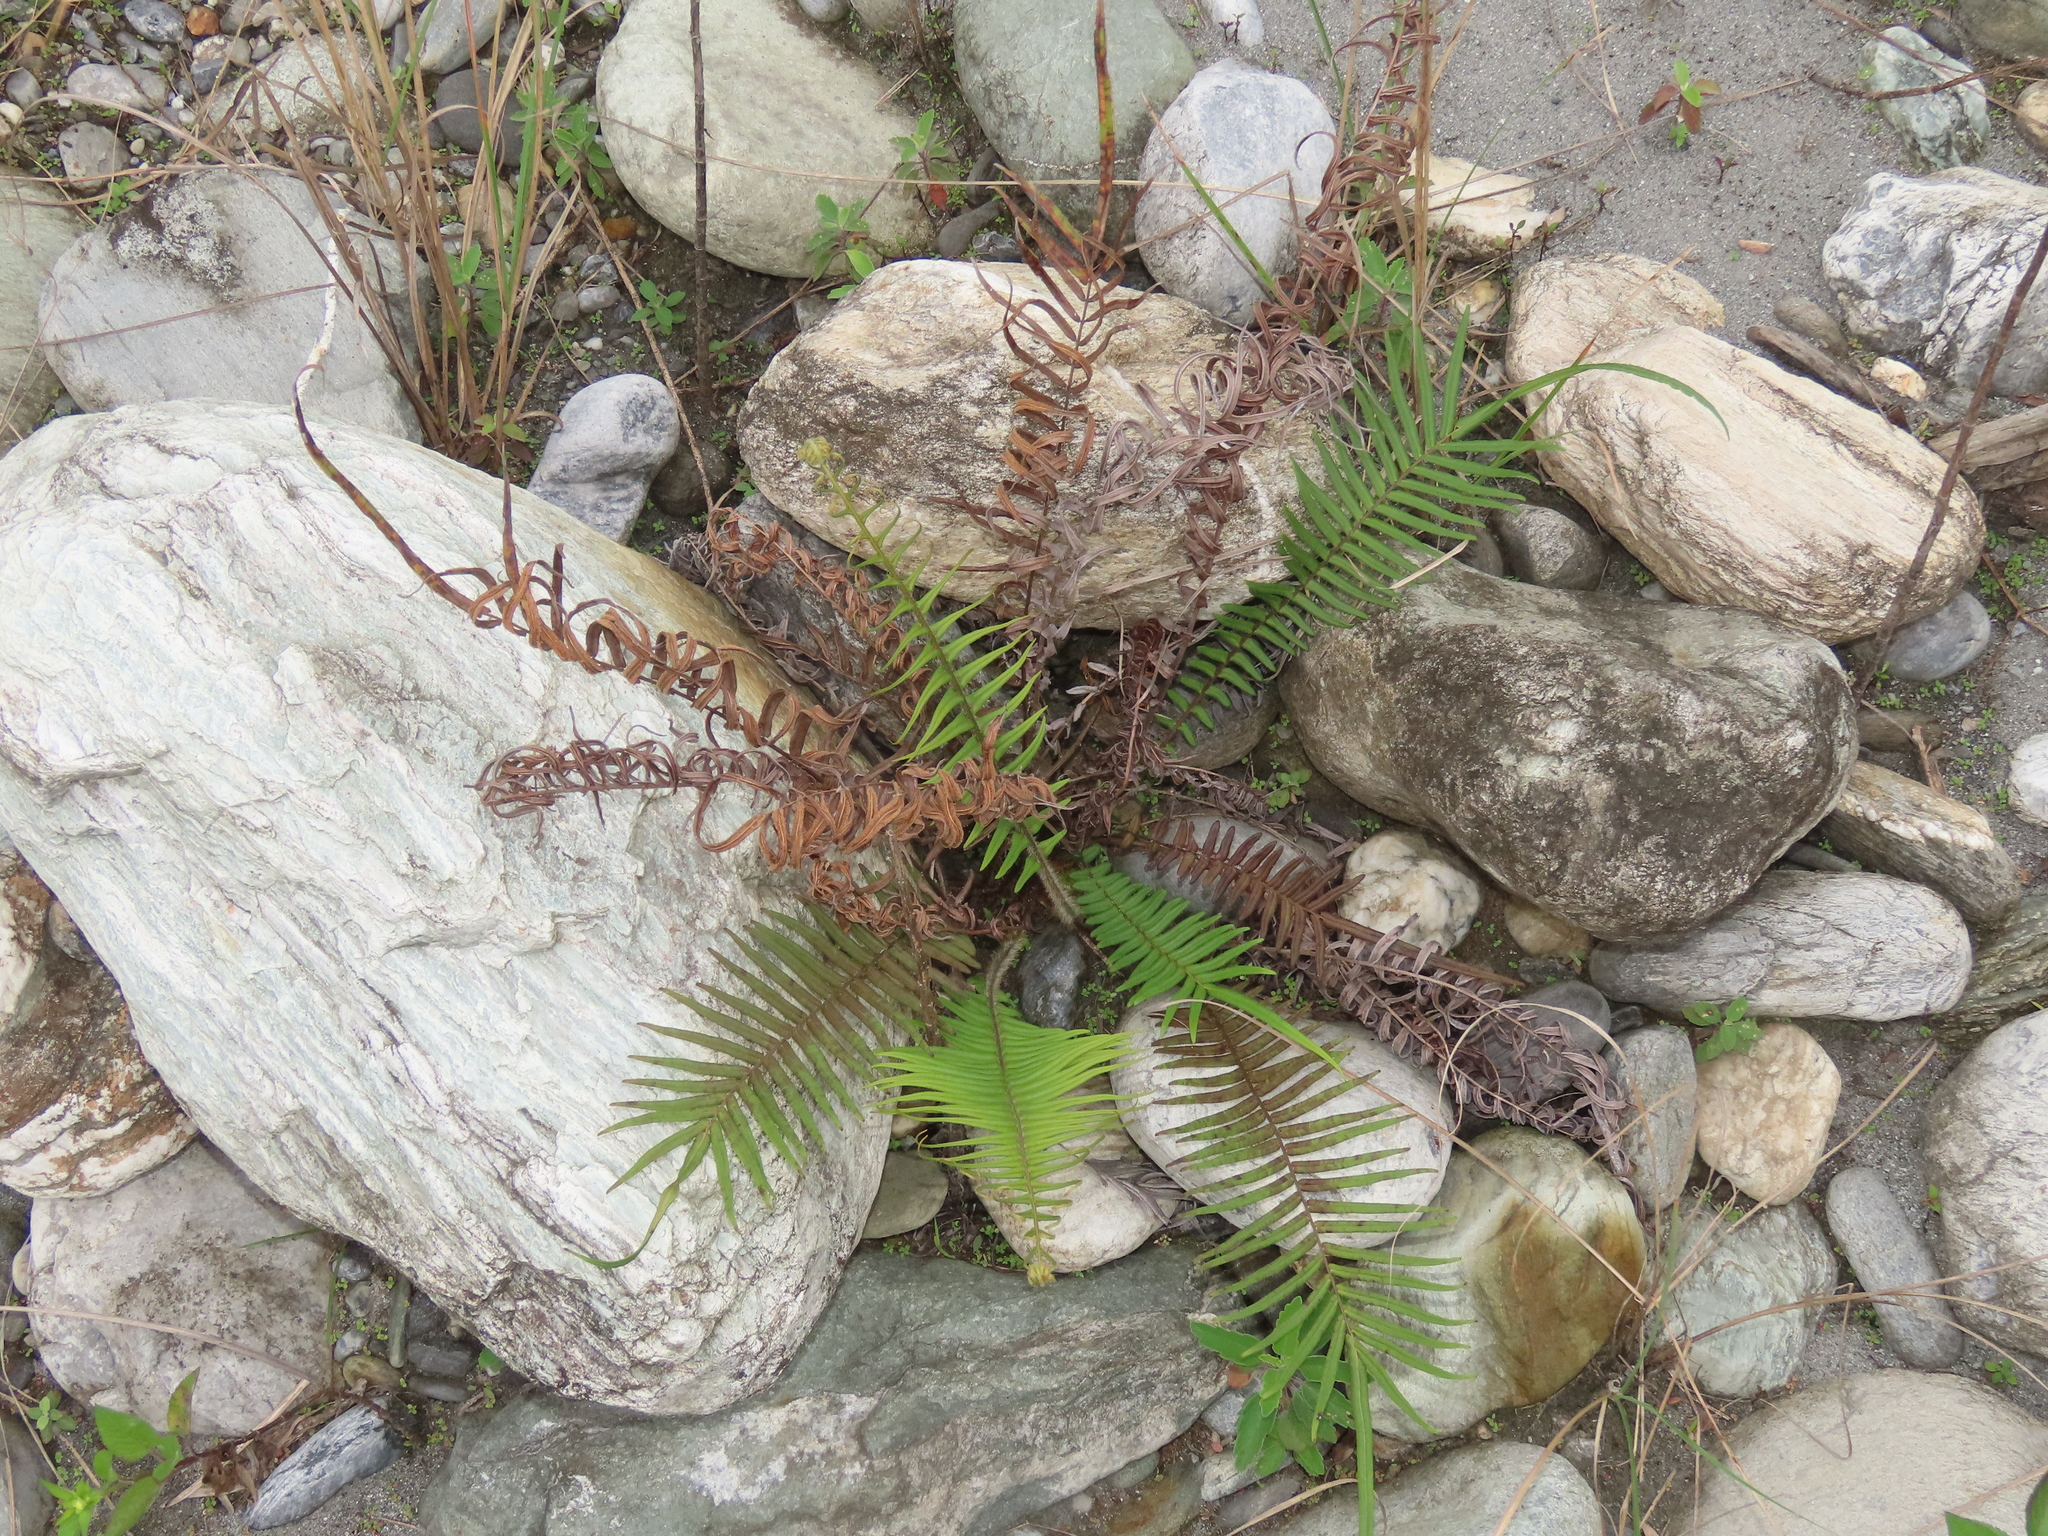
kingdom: Plantae
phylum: Tracheophyta
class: Polypodiopsida
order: Polypodiales
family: Pteridaceae
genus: Pteris
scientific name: Pteris vittata
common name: Ladder brake
